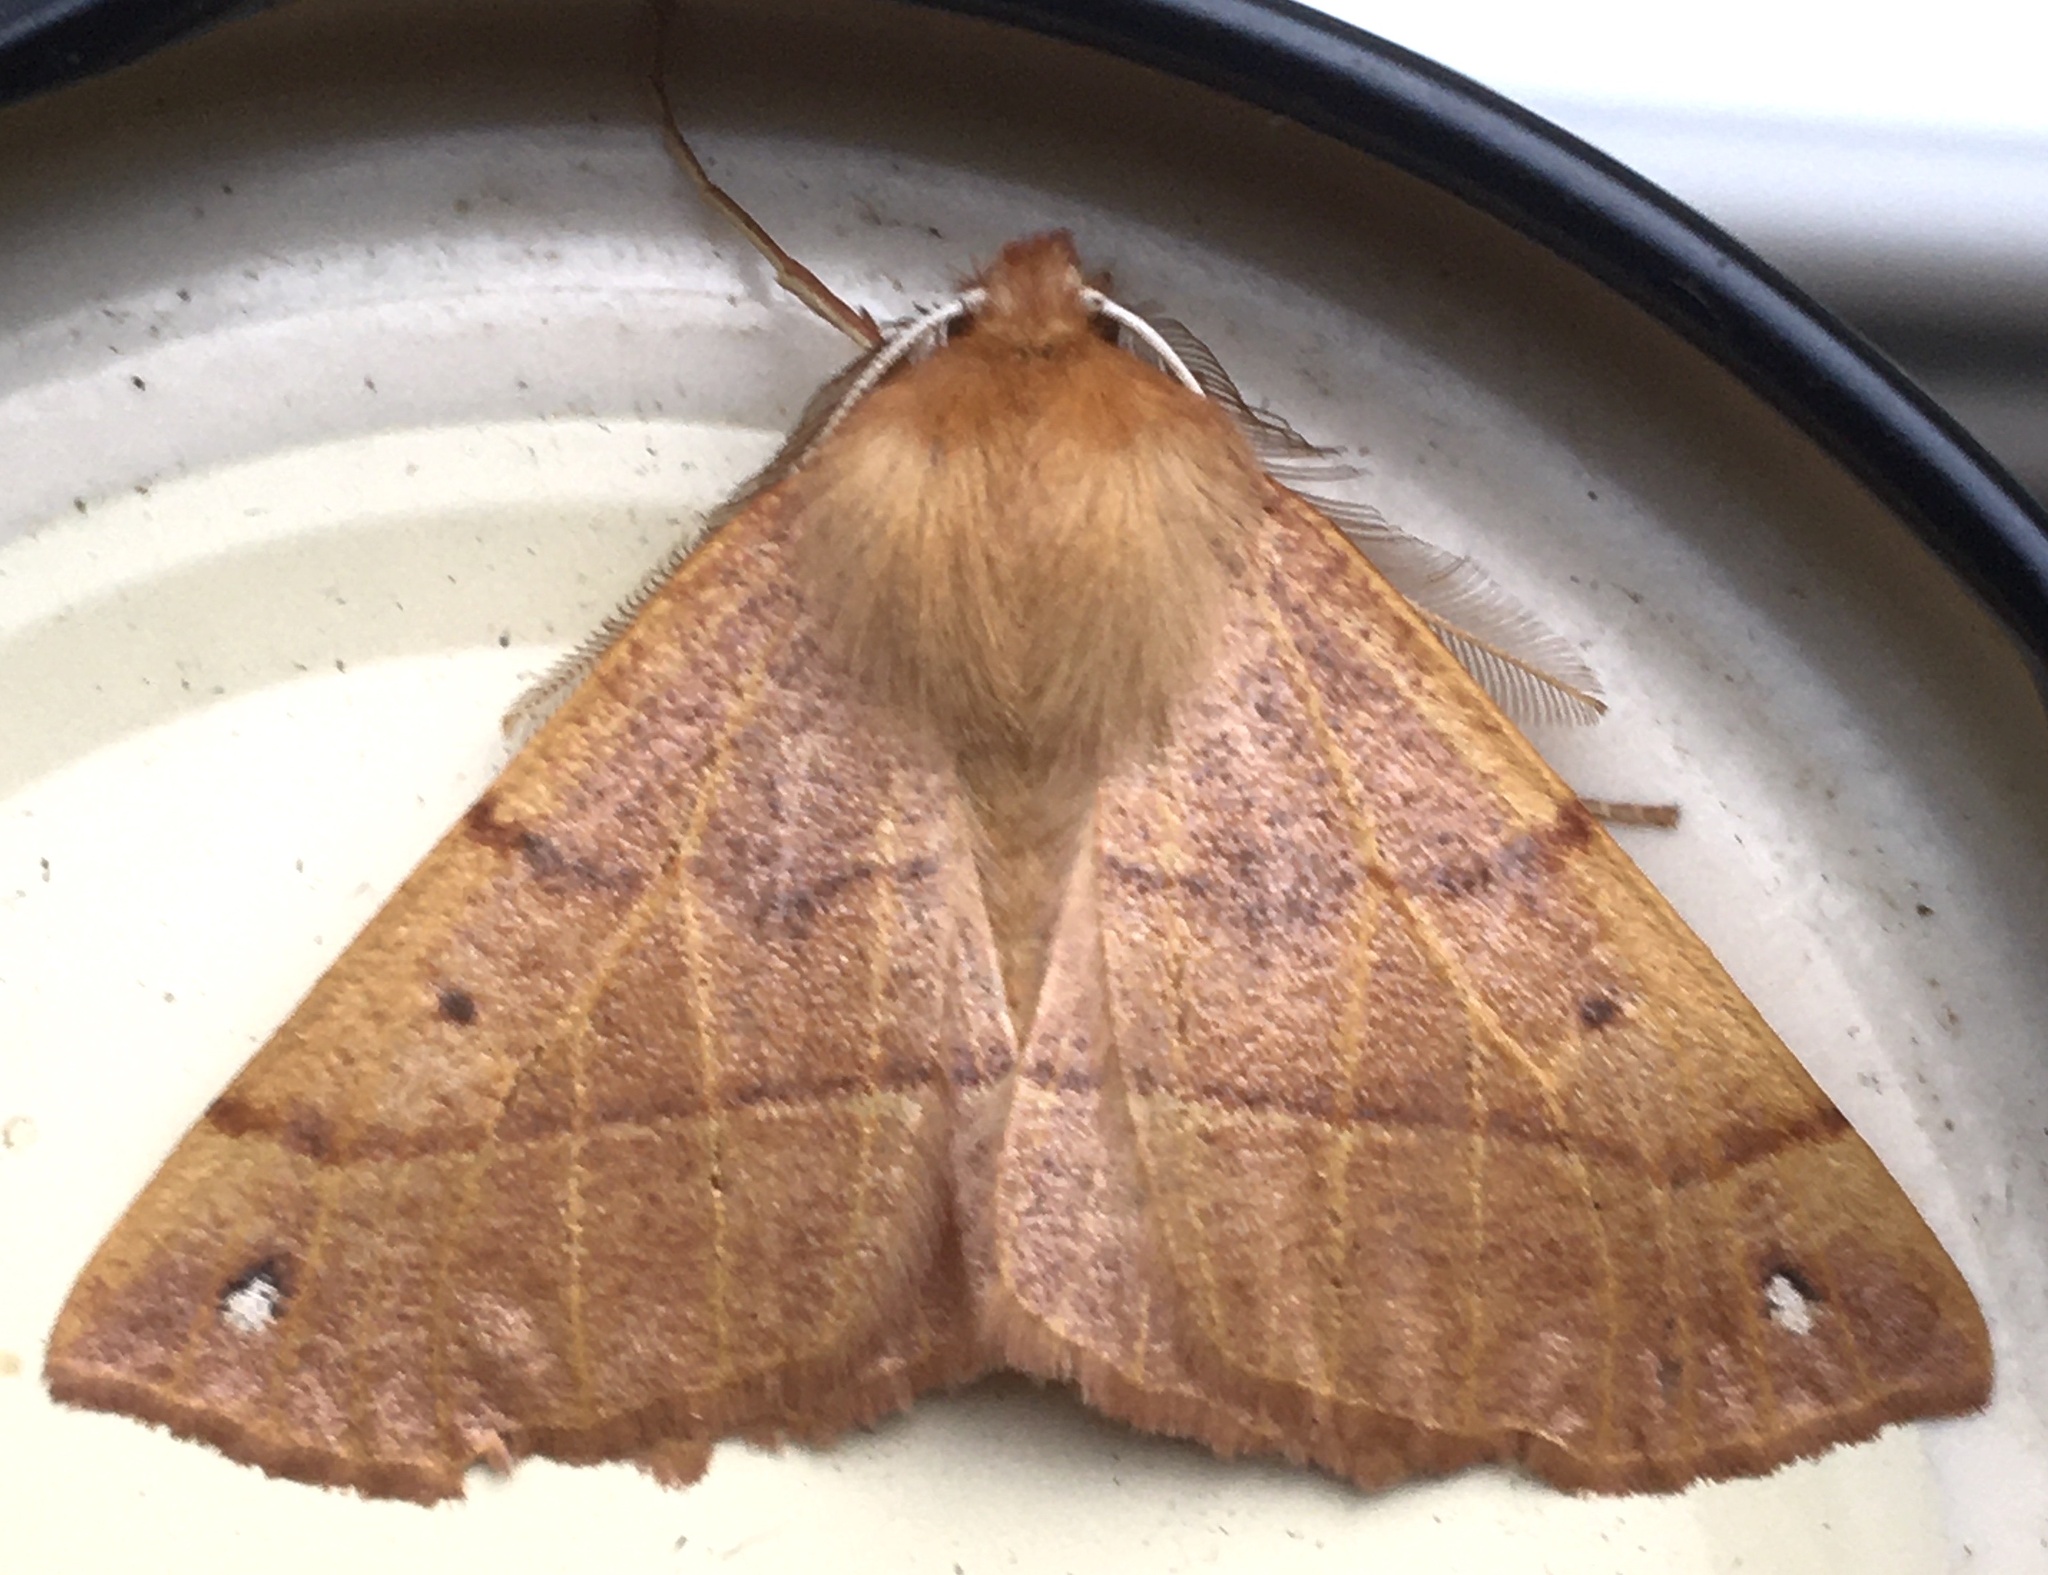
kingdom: Animalia
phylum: Arthropoda
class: Insecta
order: Lepidoptera
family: Geometridae
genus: Colotois
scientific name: Colotois pennaria
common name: Feathered thorn
